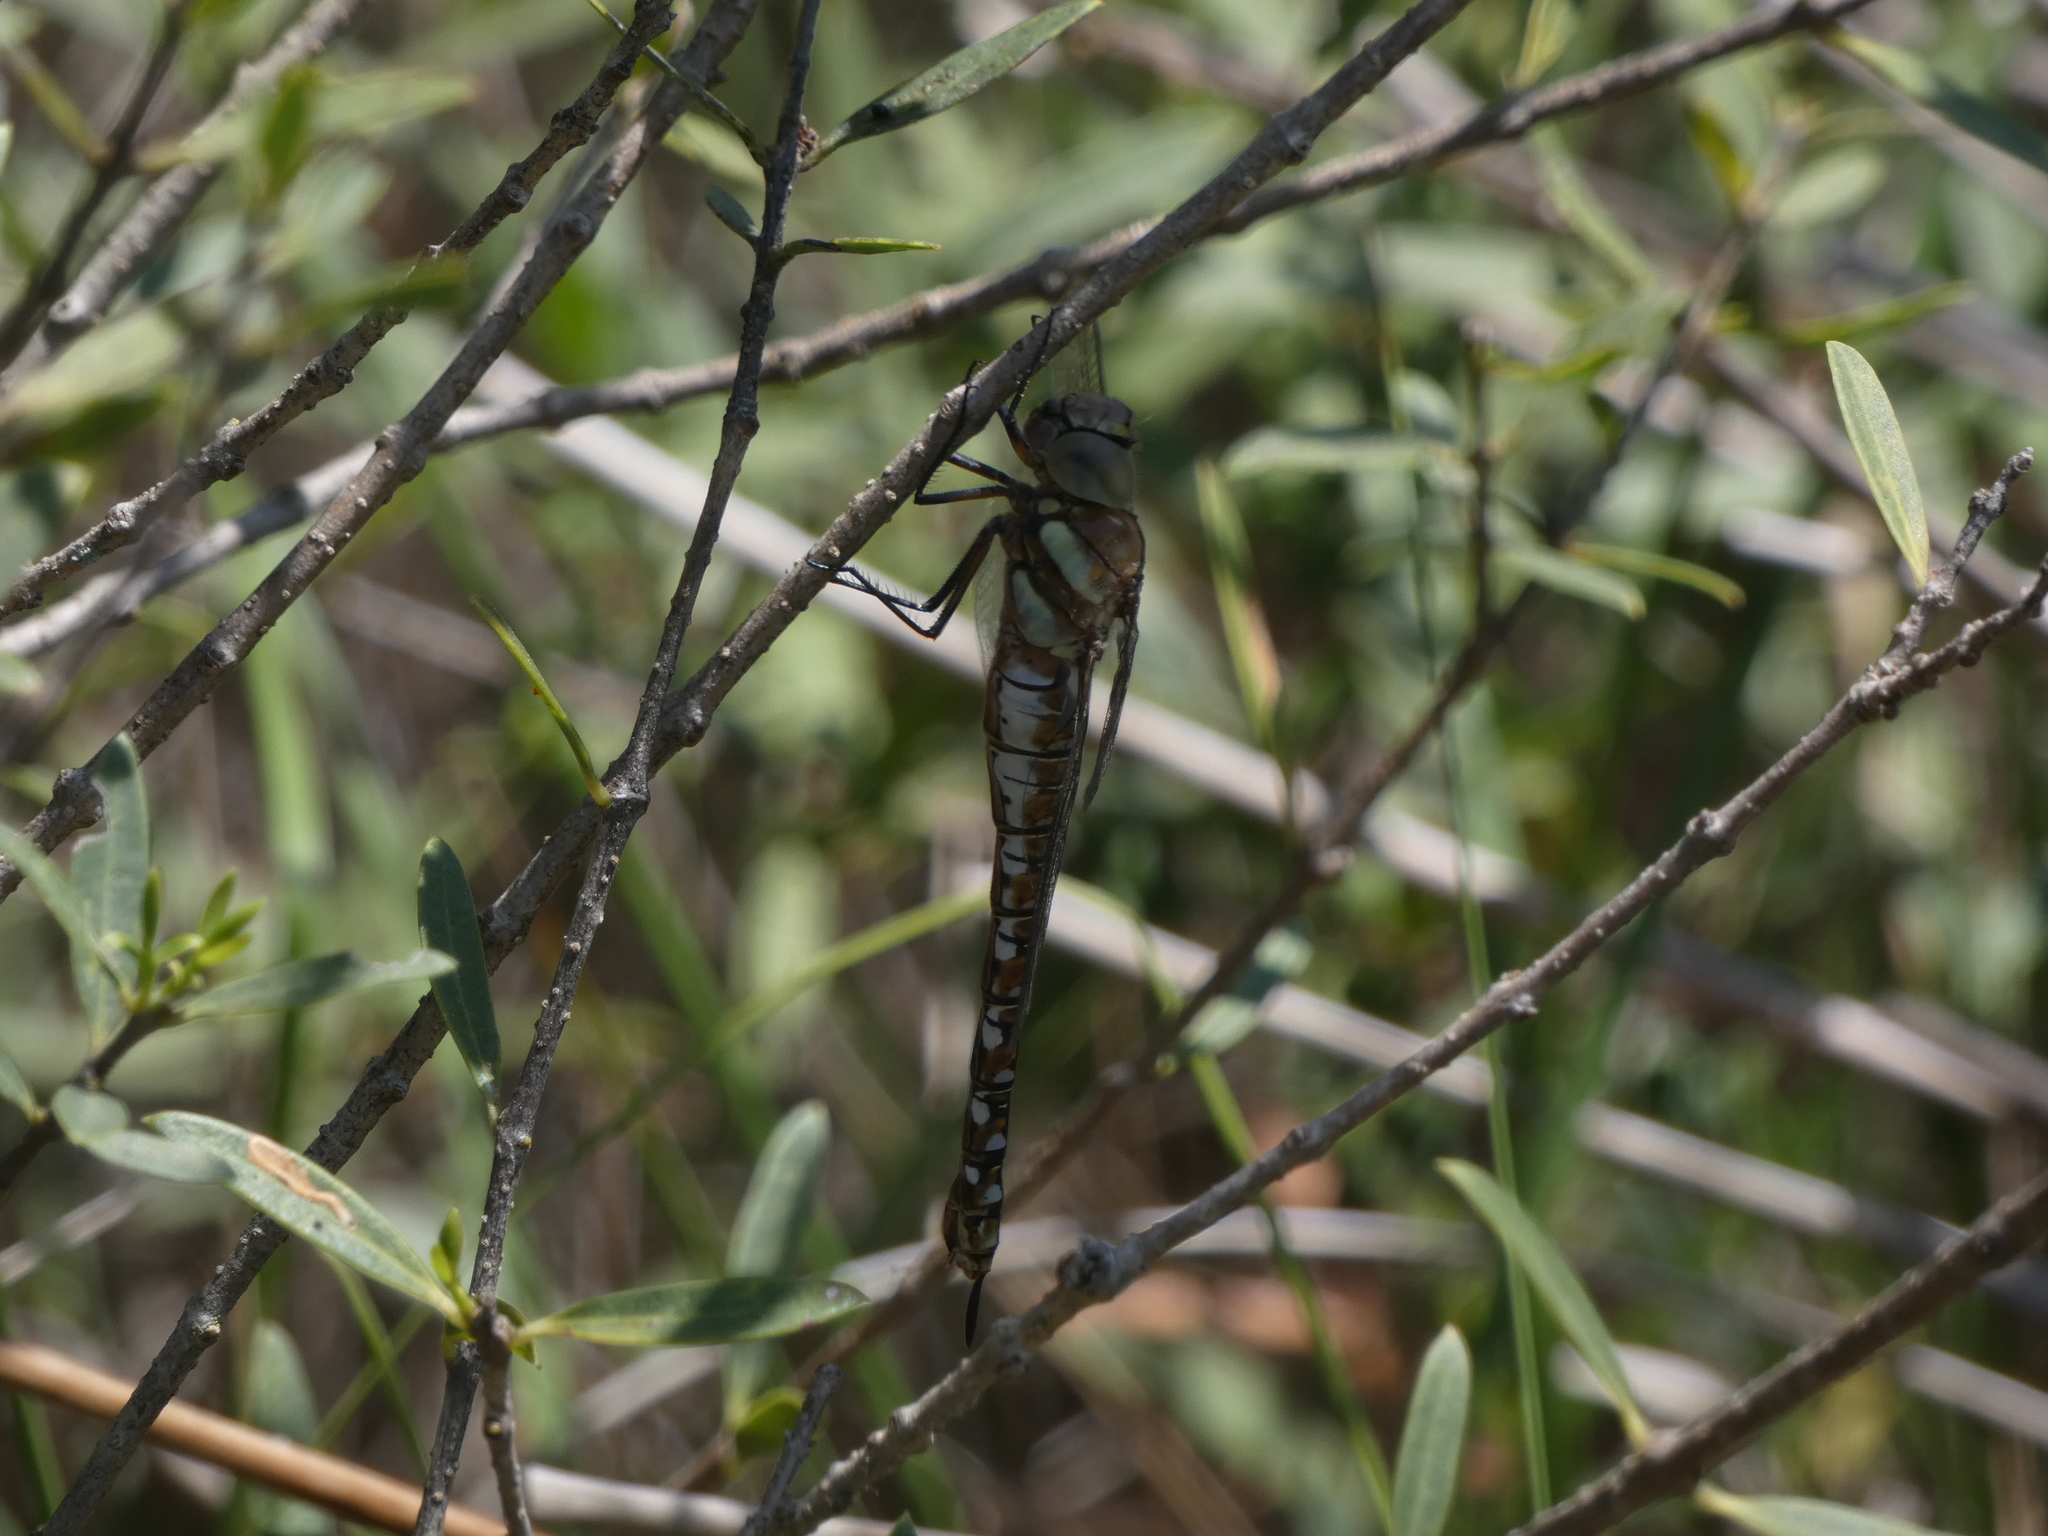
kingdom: Animalia
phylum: Arthropoda
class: Insecta
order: Odonata
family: Aeshnidae
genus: Aeshna
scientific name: Aeshna mixta
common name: Migrant hawker
